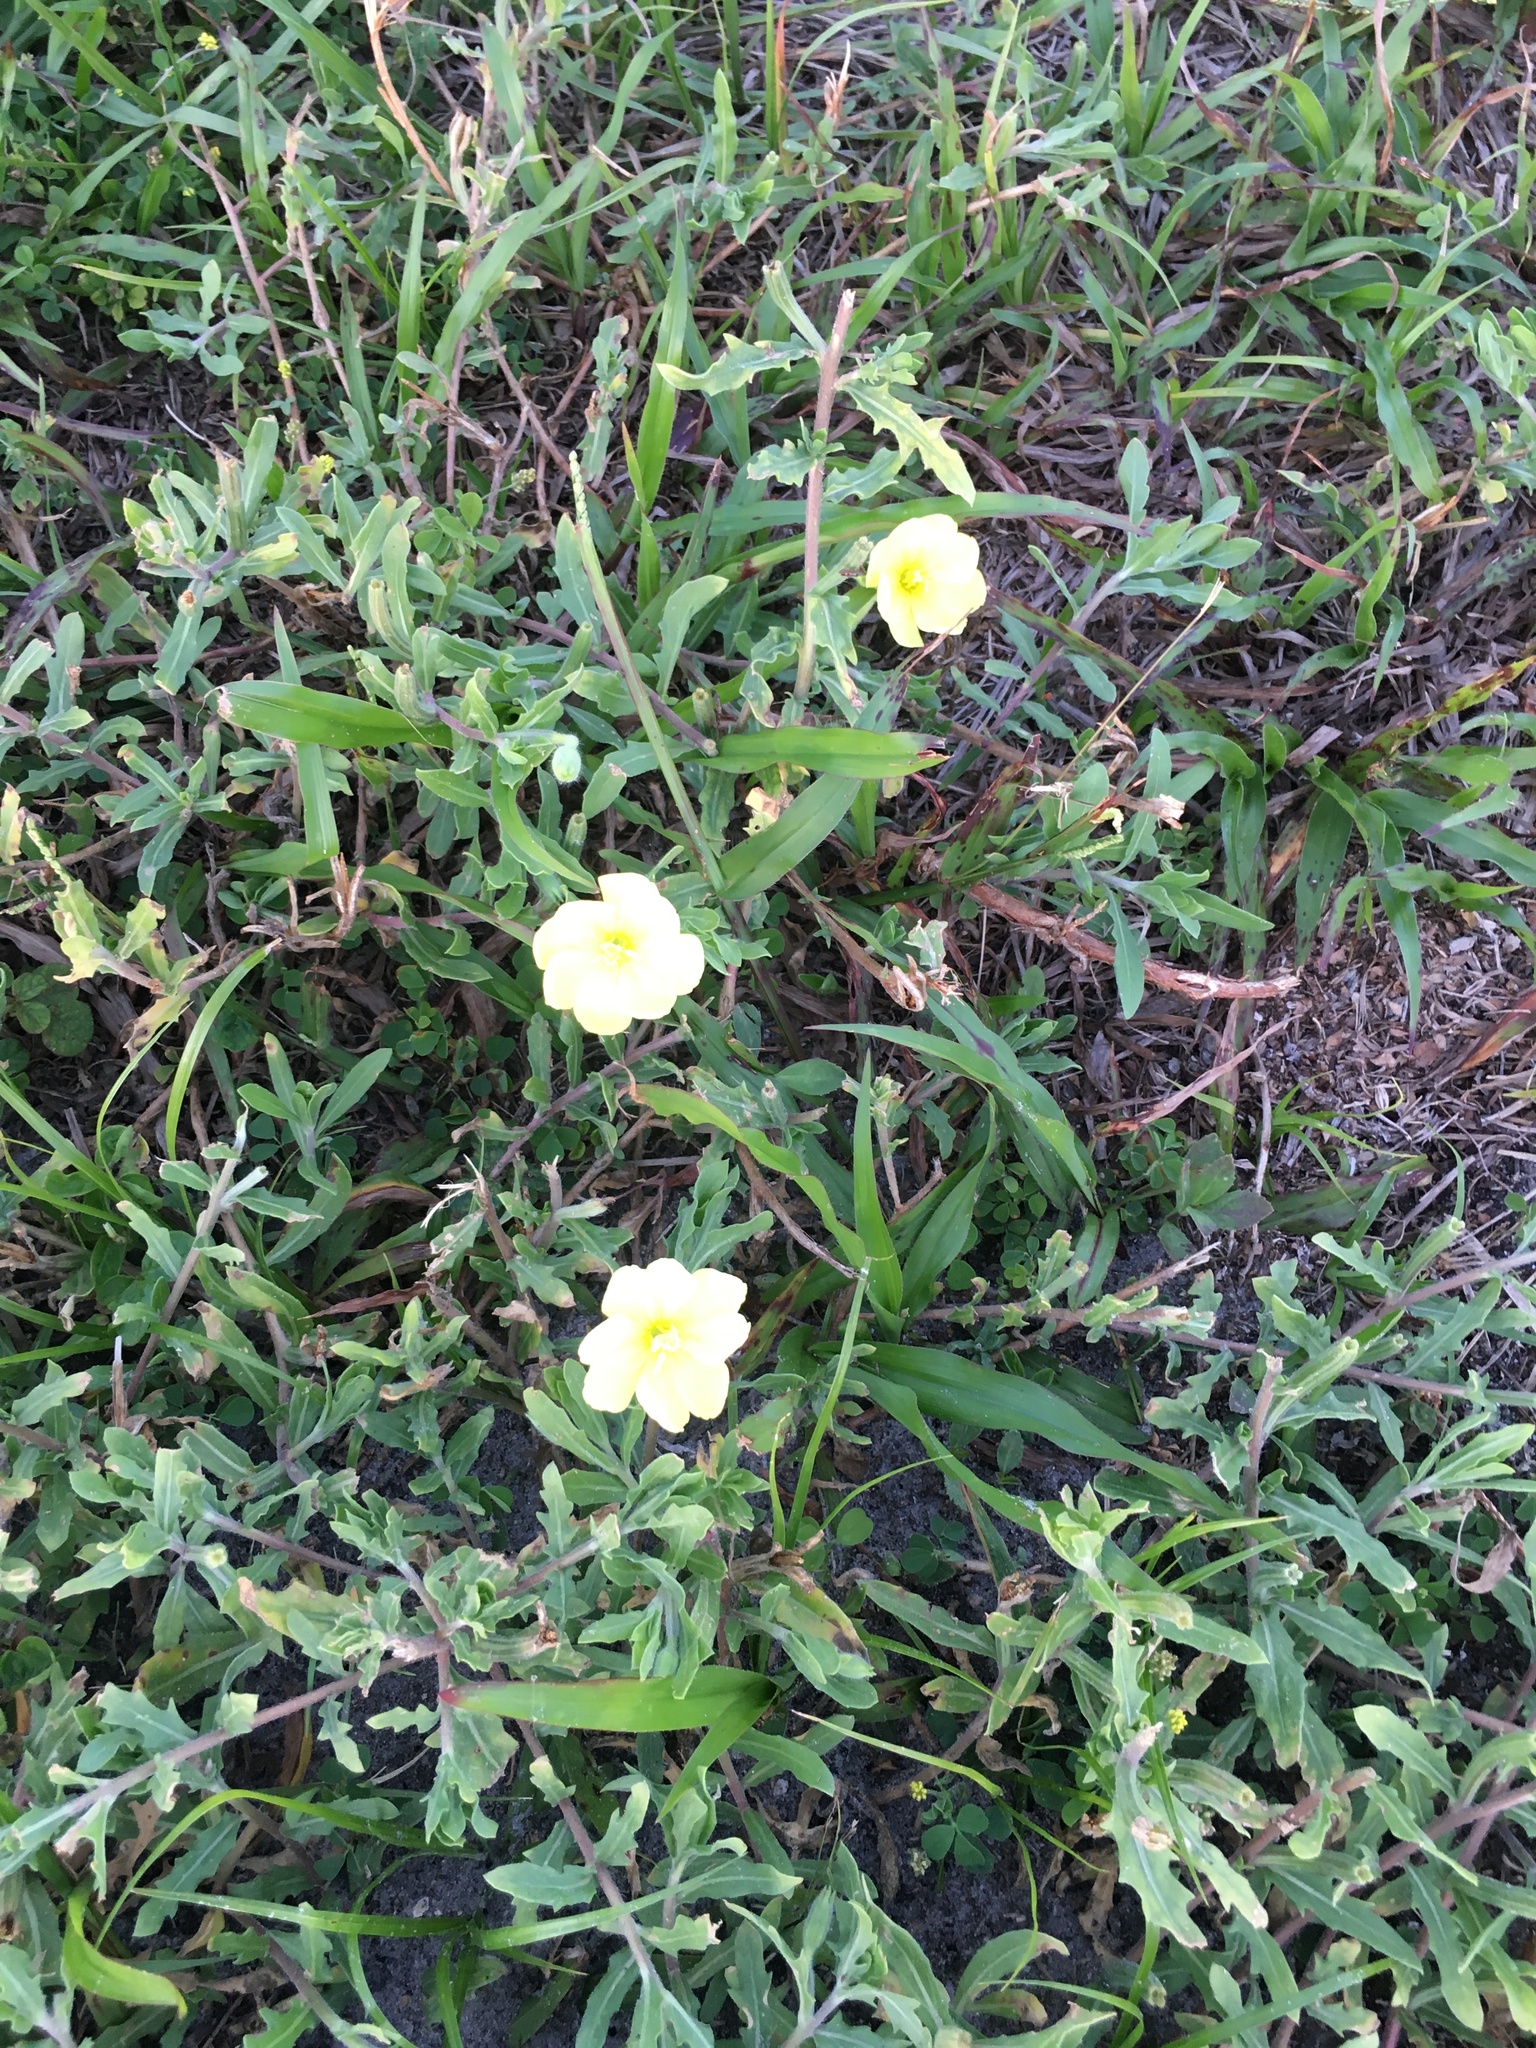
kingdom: Plantae
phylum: Tracheophyta
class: Magnoliopsida
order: Myrtales
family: Onagraceae
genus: Oenothera
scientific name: Oenothera laciniata
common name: Cut-leaved evening-primrose
